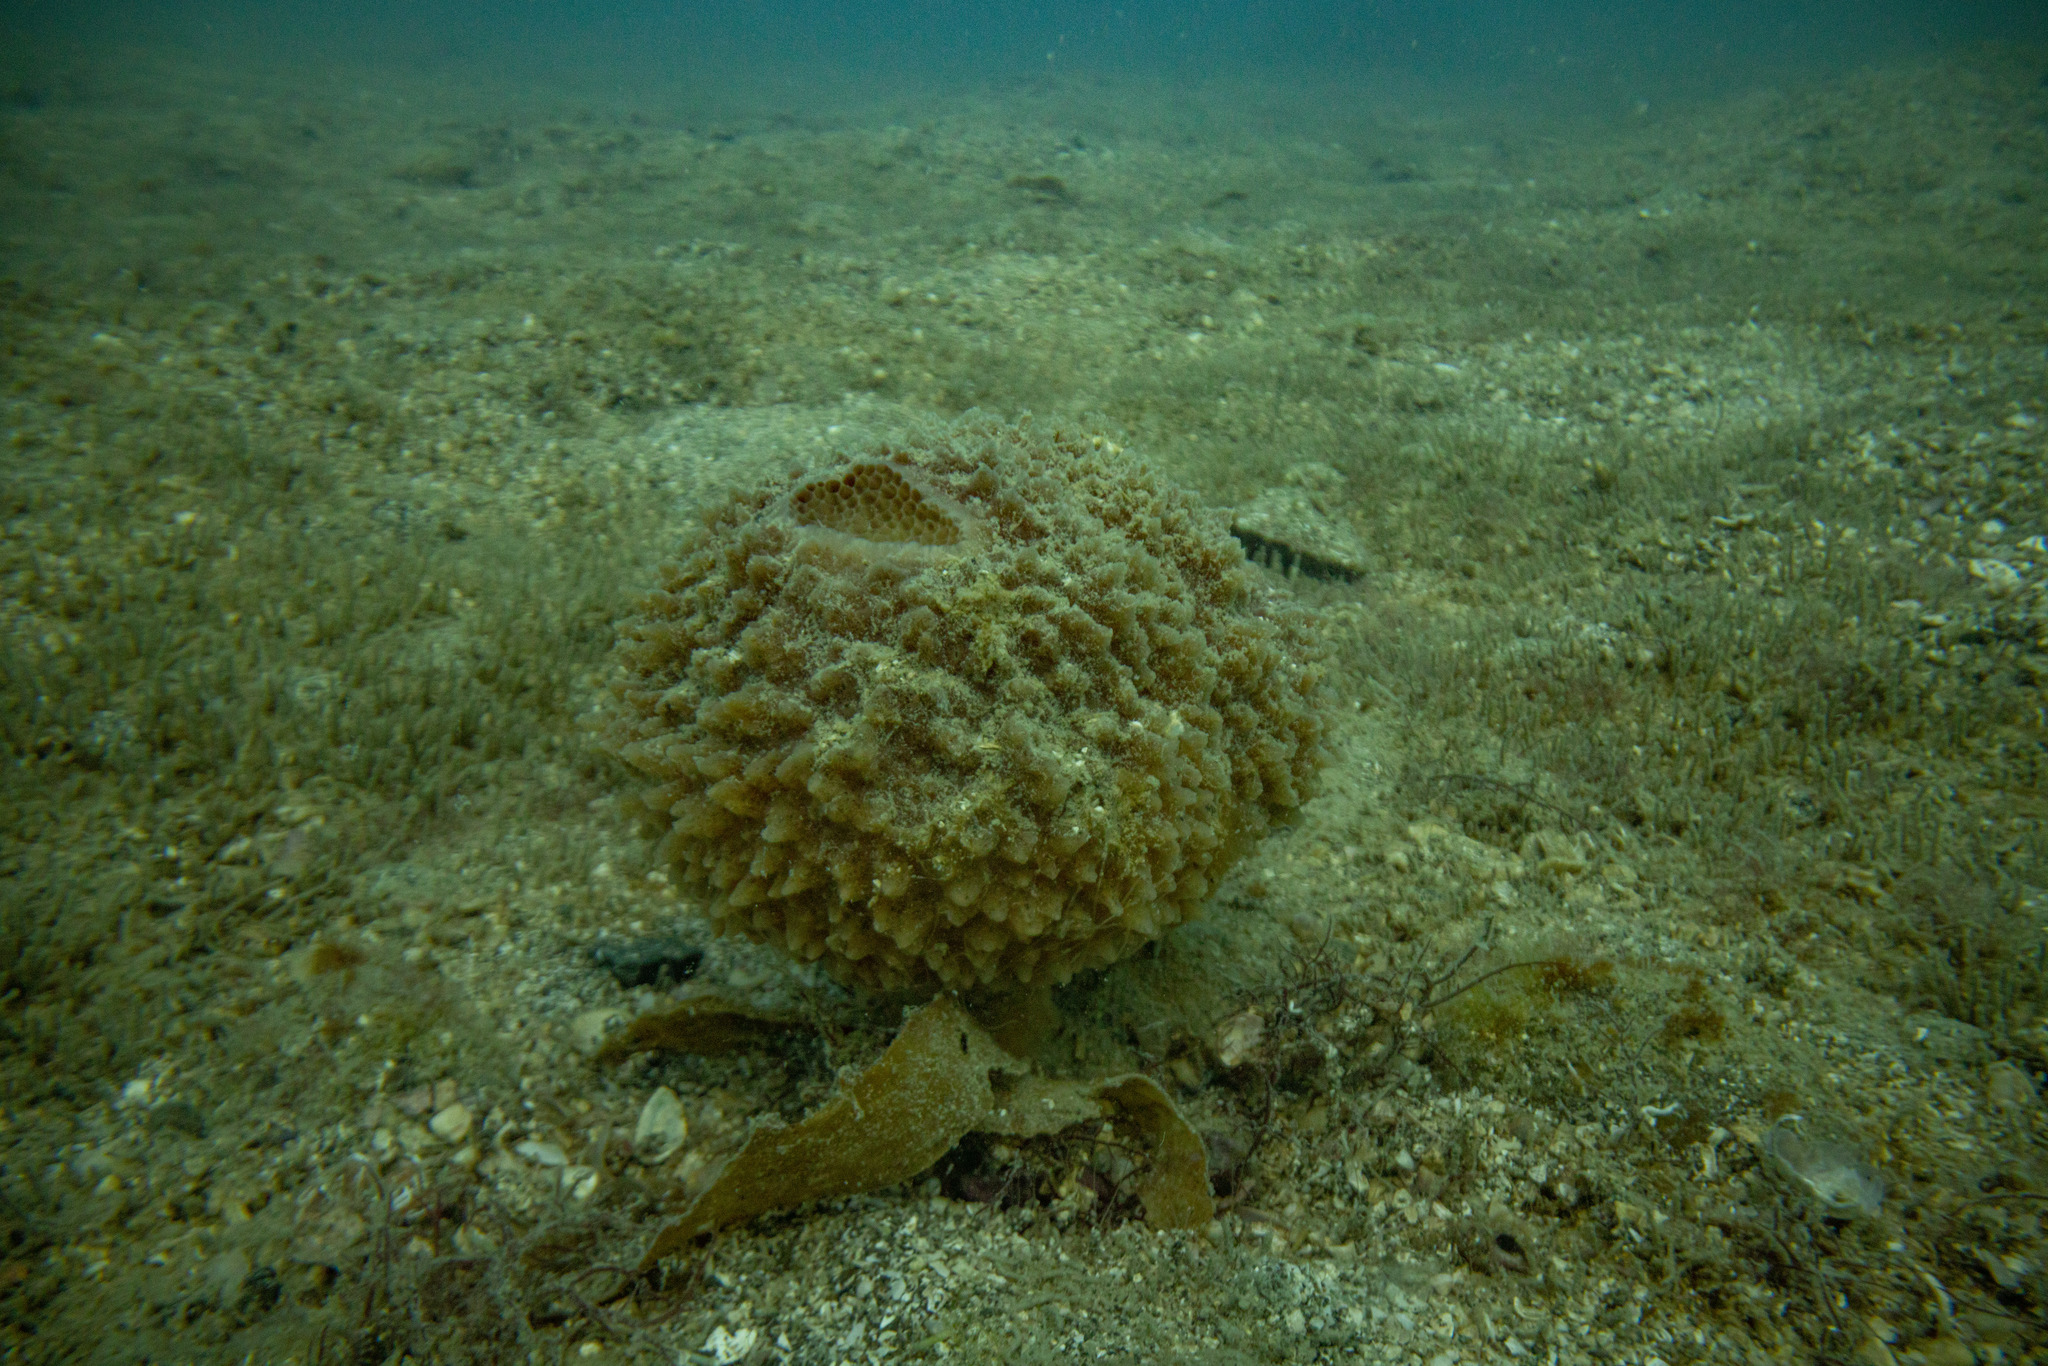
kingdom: Animalia
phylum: Porifera
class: Demospongiae
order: Suberitida
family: Suberitidae
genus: Aaptos
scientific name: Aaptos tenta
